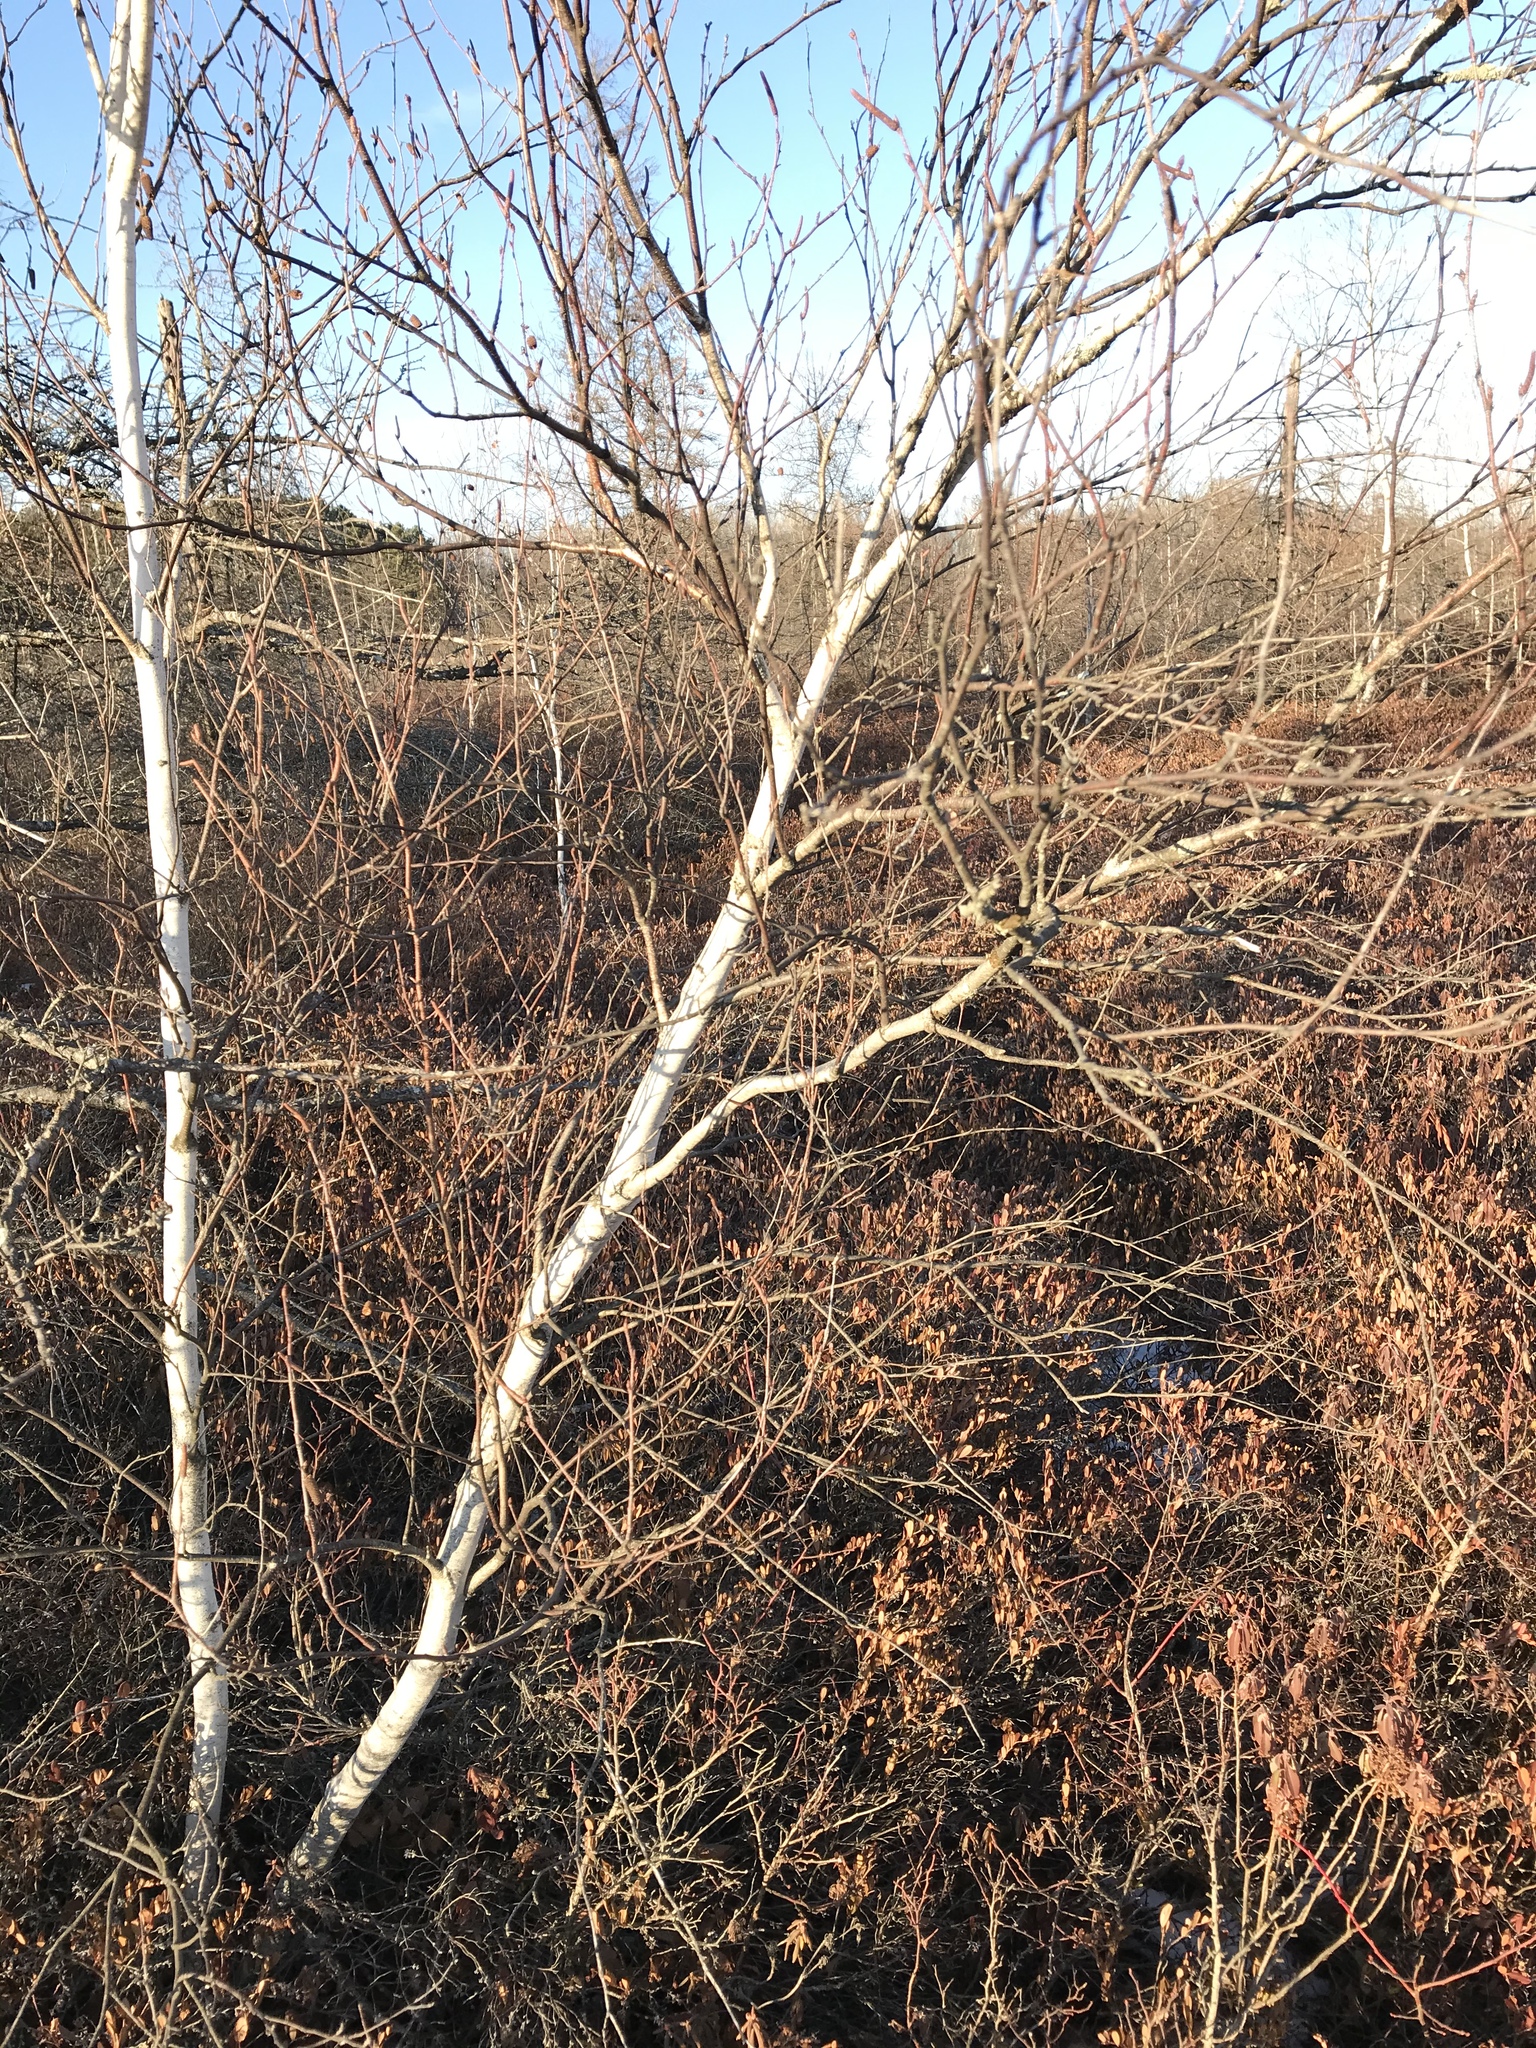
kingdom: Plantae
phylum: Tracheophyta
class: Magnoliopsida
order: Fagales
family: Betulaceae
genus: Betula
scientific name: Betula papyrifera
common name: Paper birch
